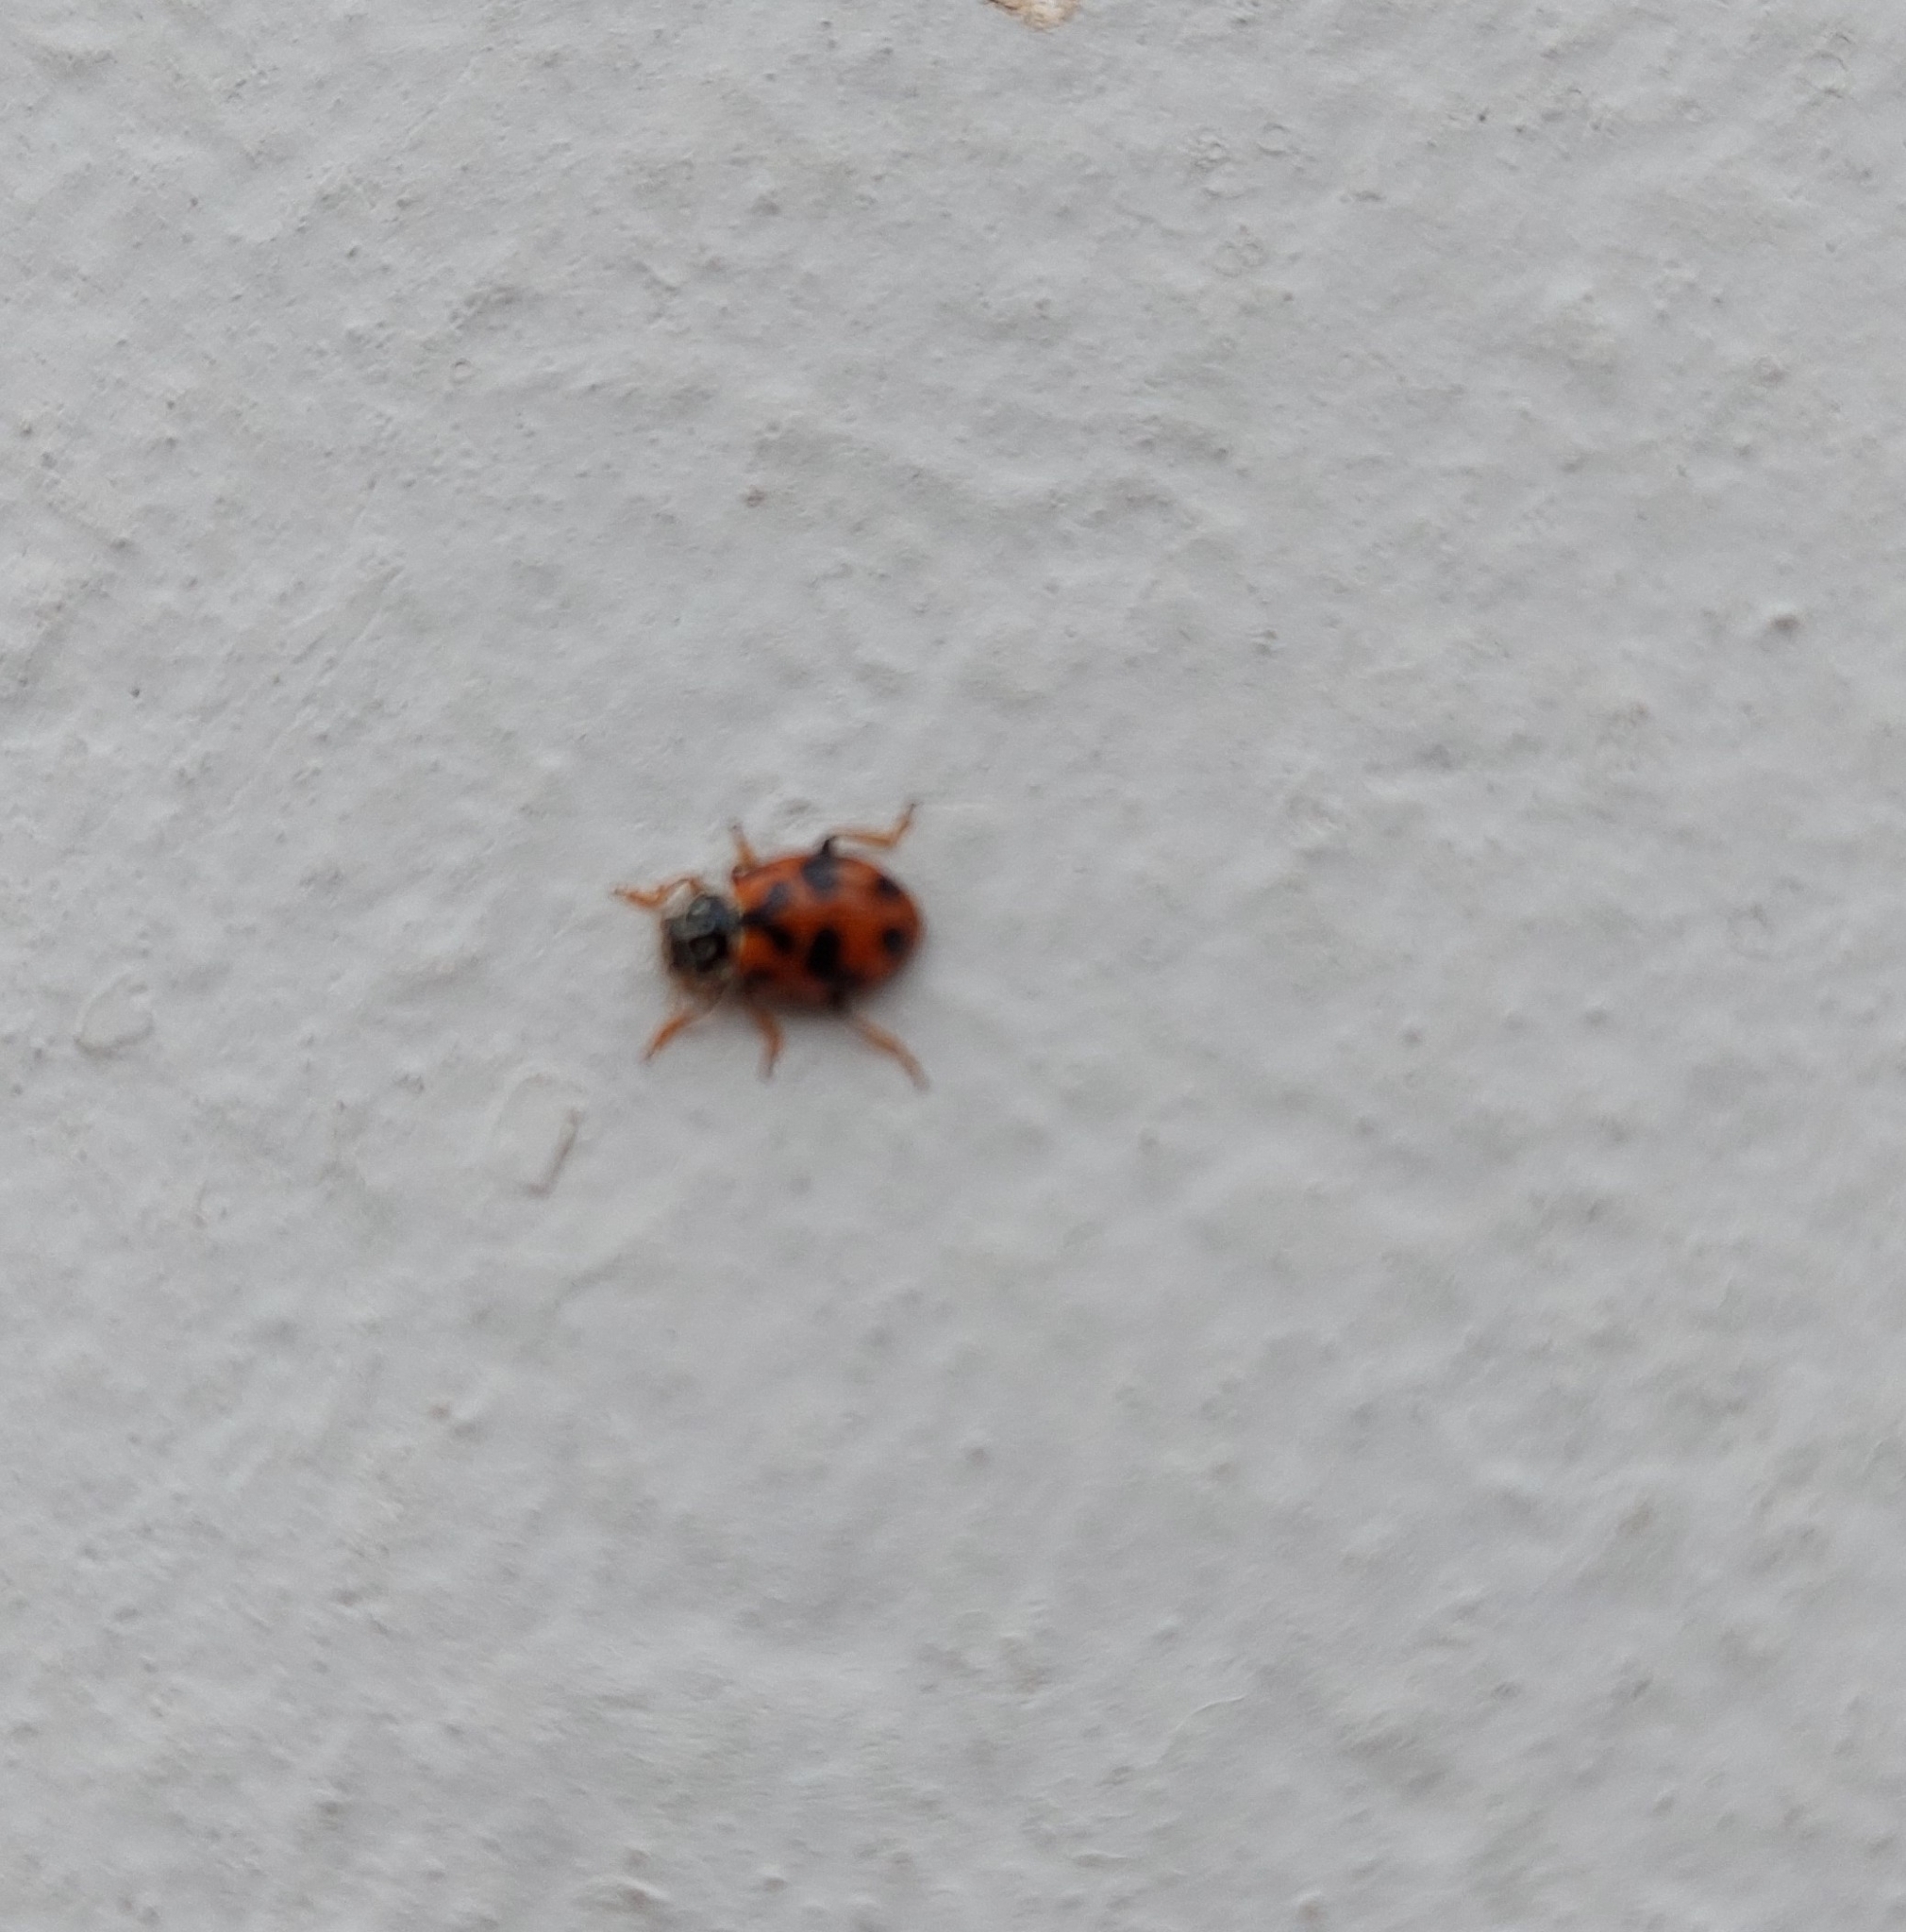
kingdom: Animalia
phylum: Arthropoda
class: Insecta
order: Coleoptera
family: Coccinellidae
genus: Hippodamia
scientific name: Hippodamia variegata
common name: Ladybird beetle
